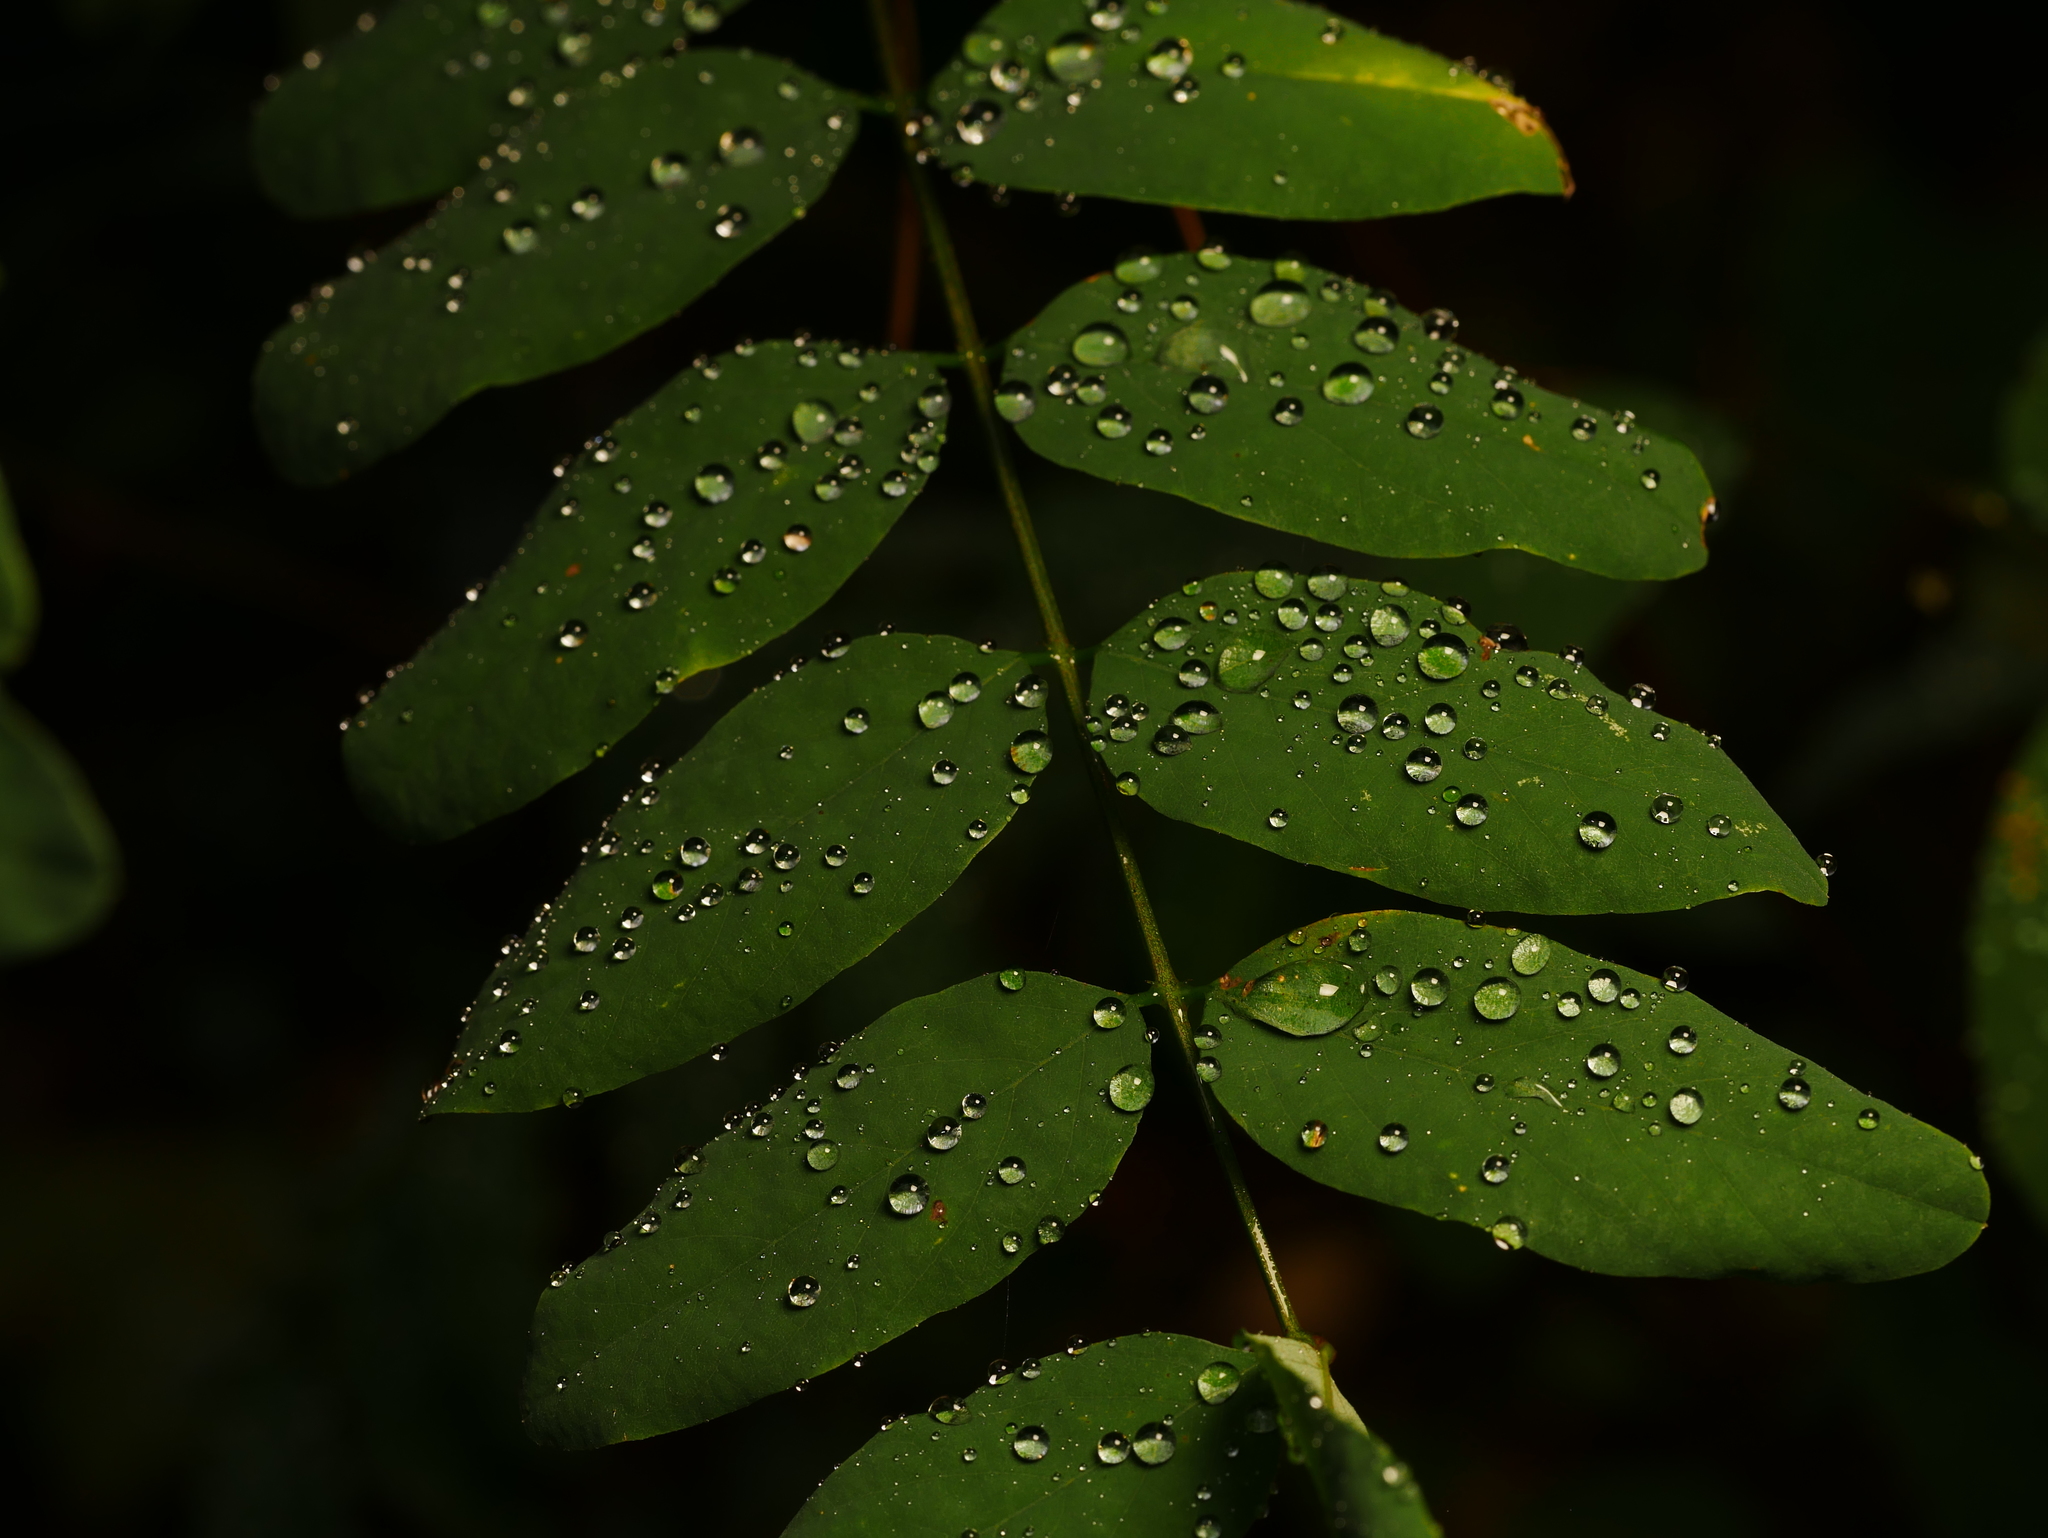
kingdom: Plantae
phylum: Tracheophyta
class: Magnoliopsida
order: Fabales
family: Fabaceae
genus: Robinia
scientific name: Robinia pseudoacacia
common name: Black locust
